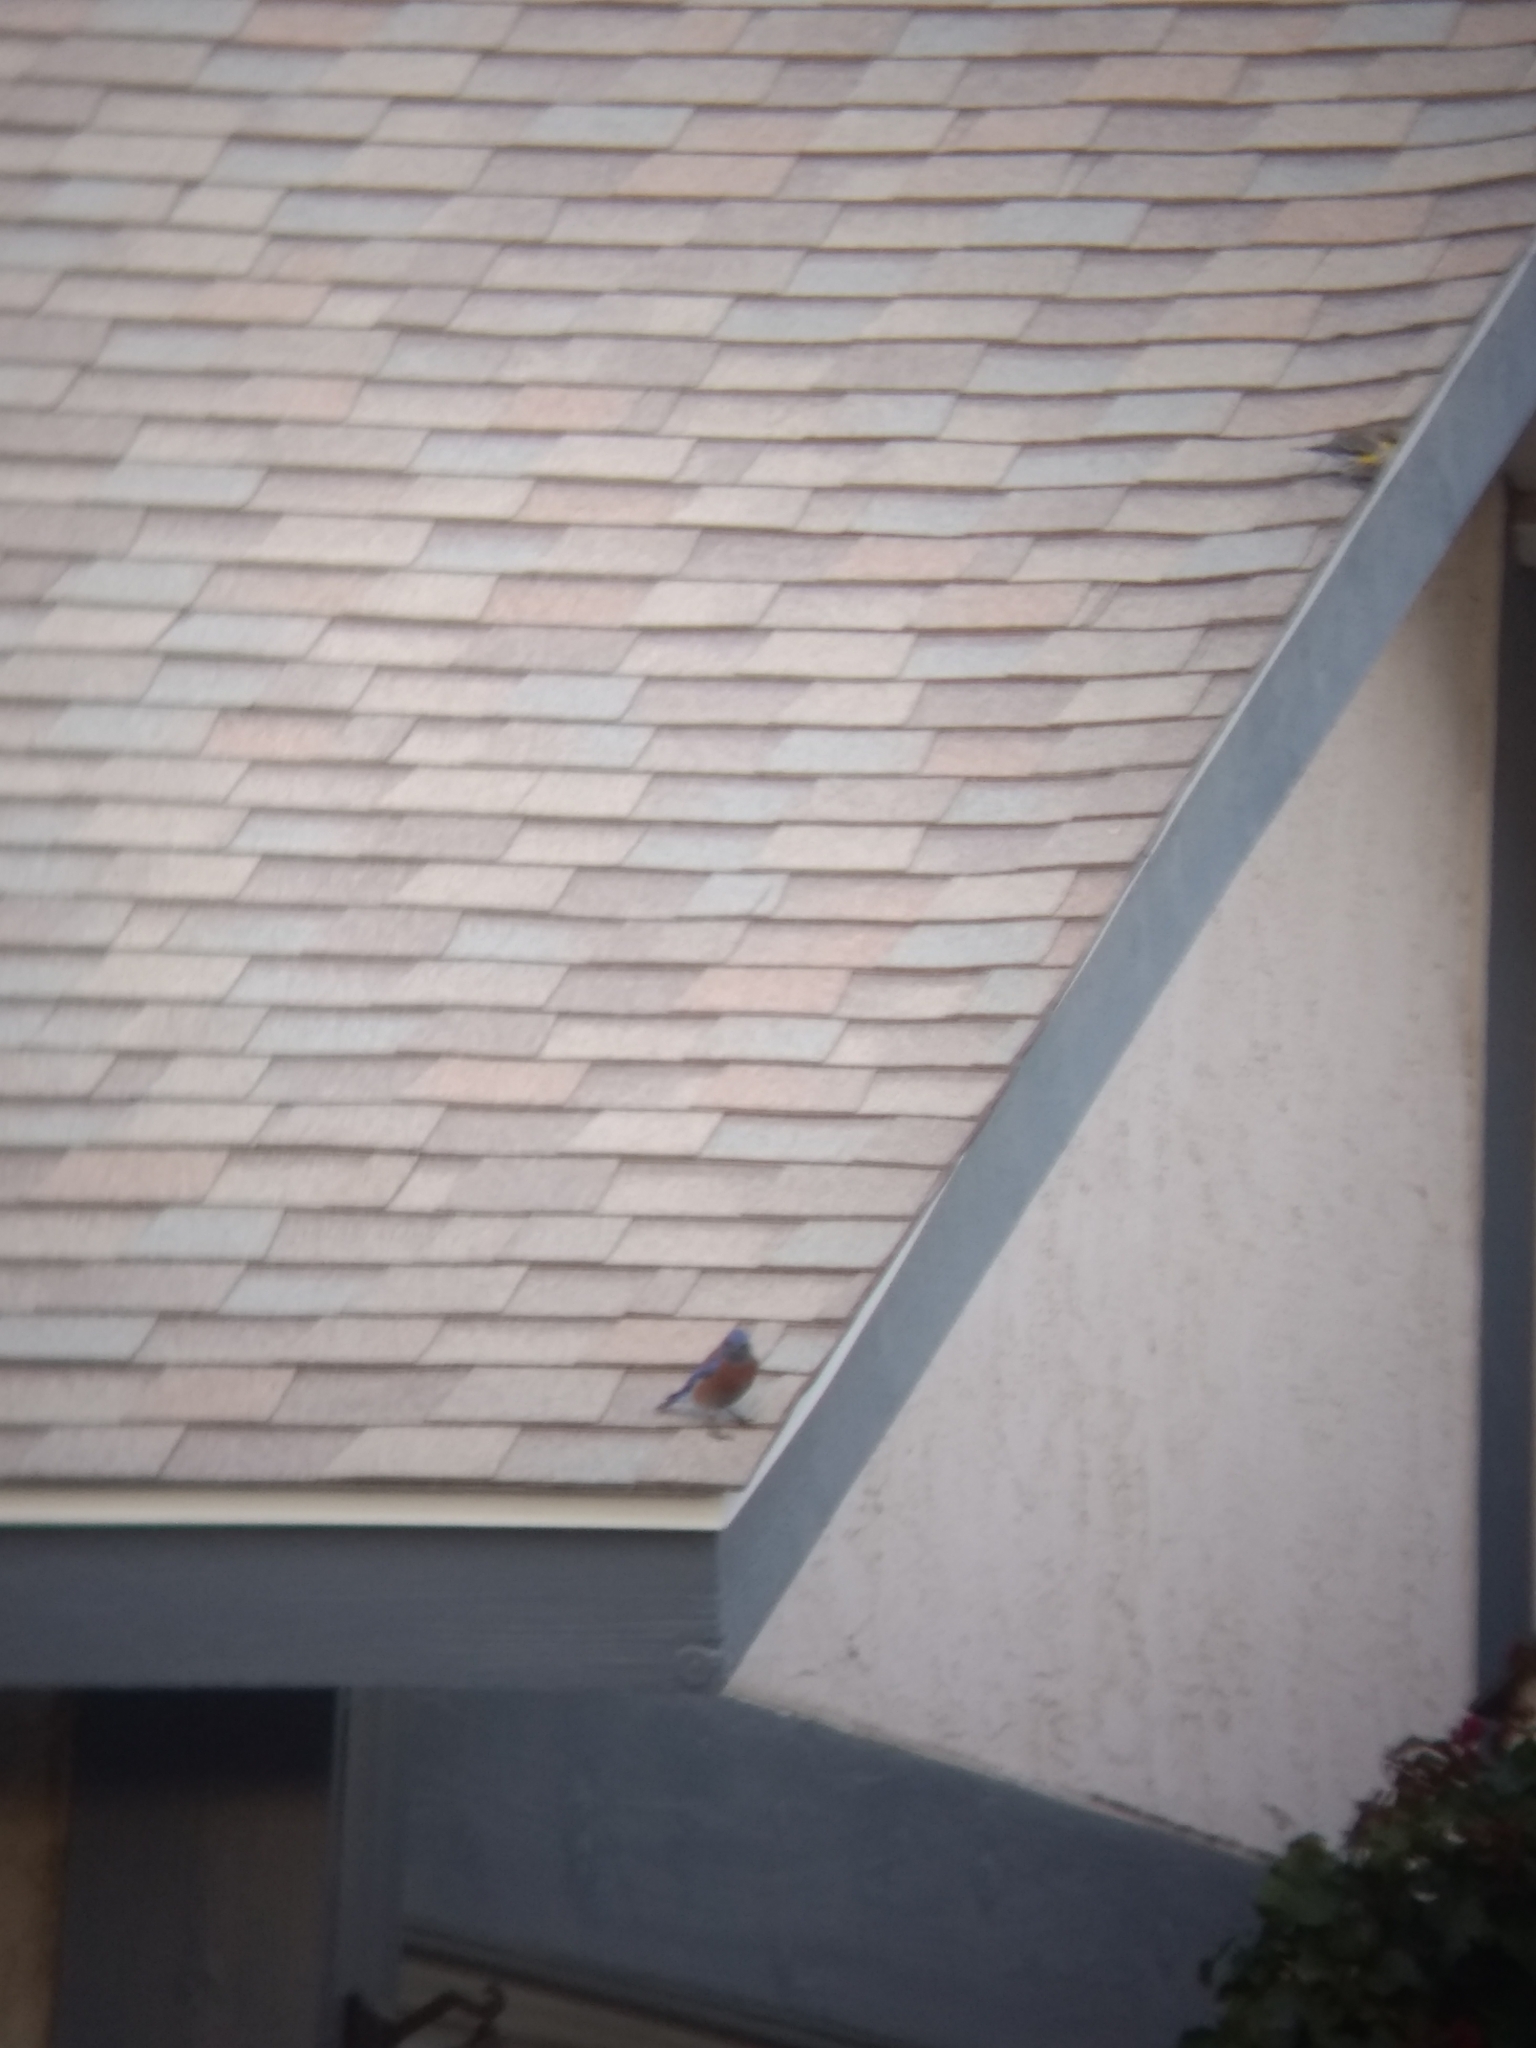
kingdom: Animalia
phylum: Chordata
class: Aves
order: Passeriformes
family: Turdidae
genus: Sialia
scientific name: Sialia mexicana
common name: Western bluebird
